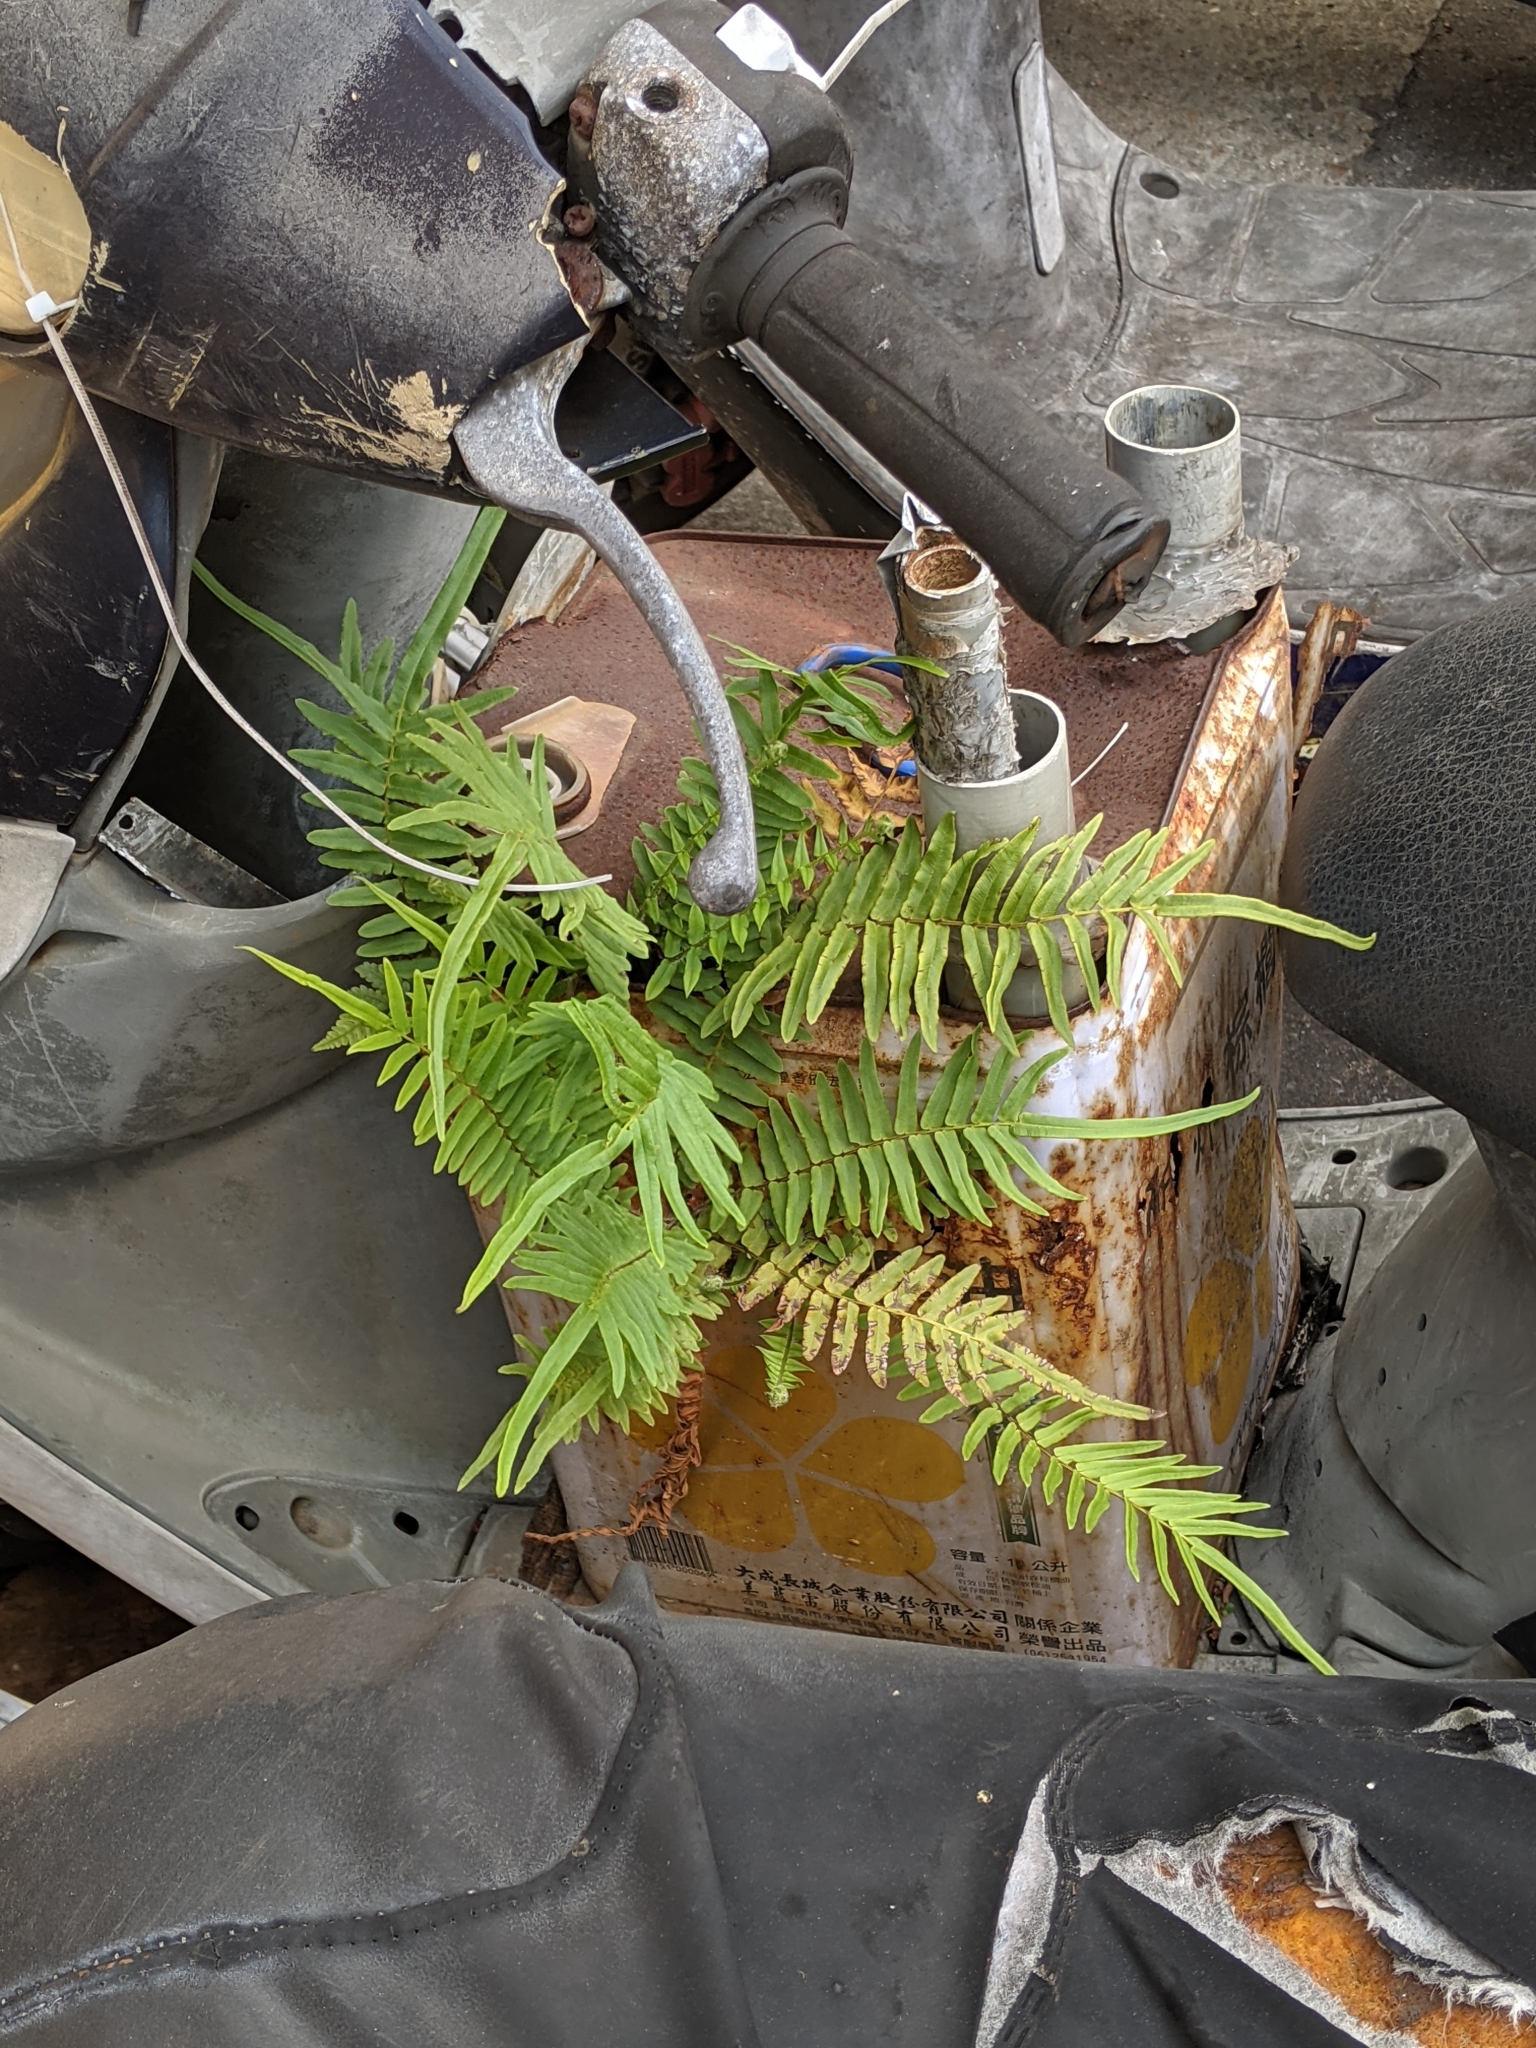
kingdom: Plantae
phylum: Tracheophyta
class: Polypodiopsida
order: Polypodiales
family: Pteridaceae
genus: Pteris
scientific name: Pteris vittata
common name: Ladder brake
